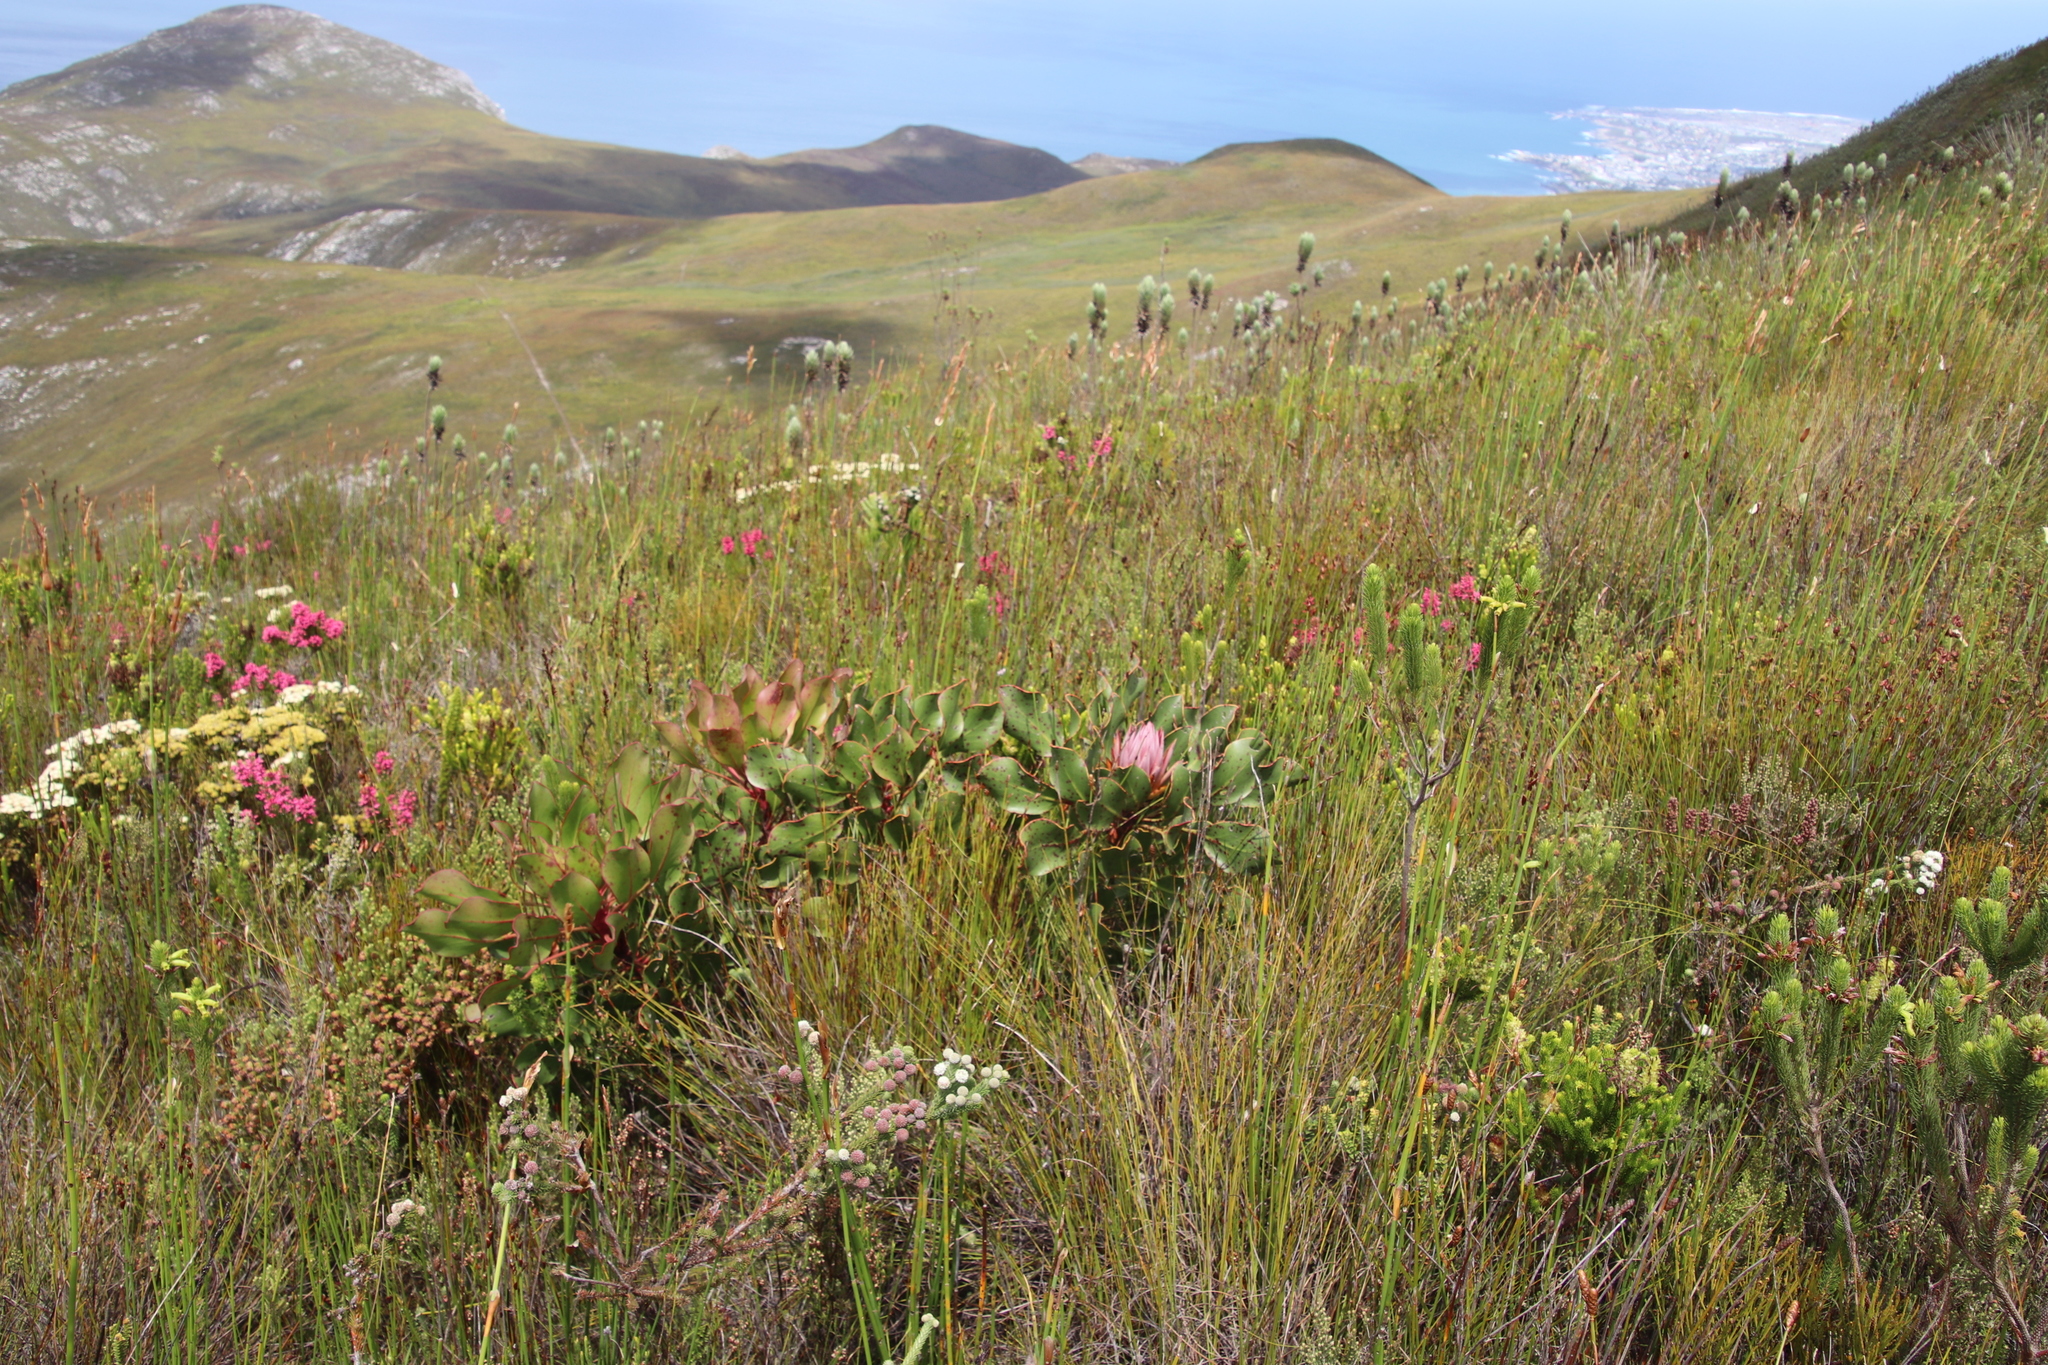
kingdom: Plantae
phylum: Tracheophyta
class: Magnoliopsida
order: Proteales
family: Proteaceae
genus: Protea
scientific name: Protea cynaroides
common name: King protea
